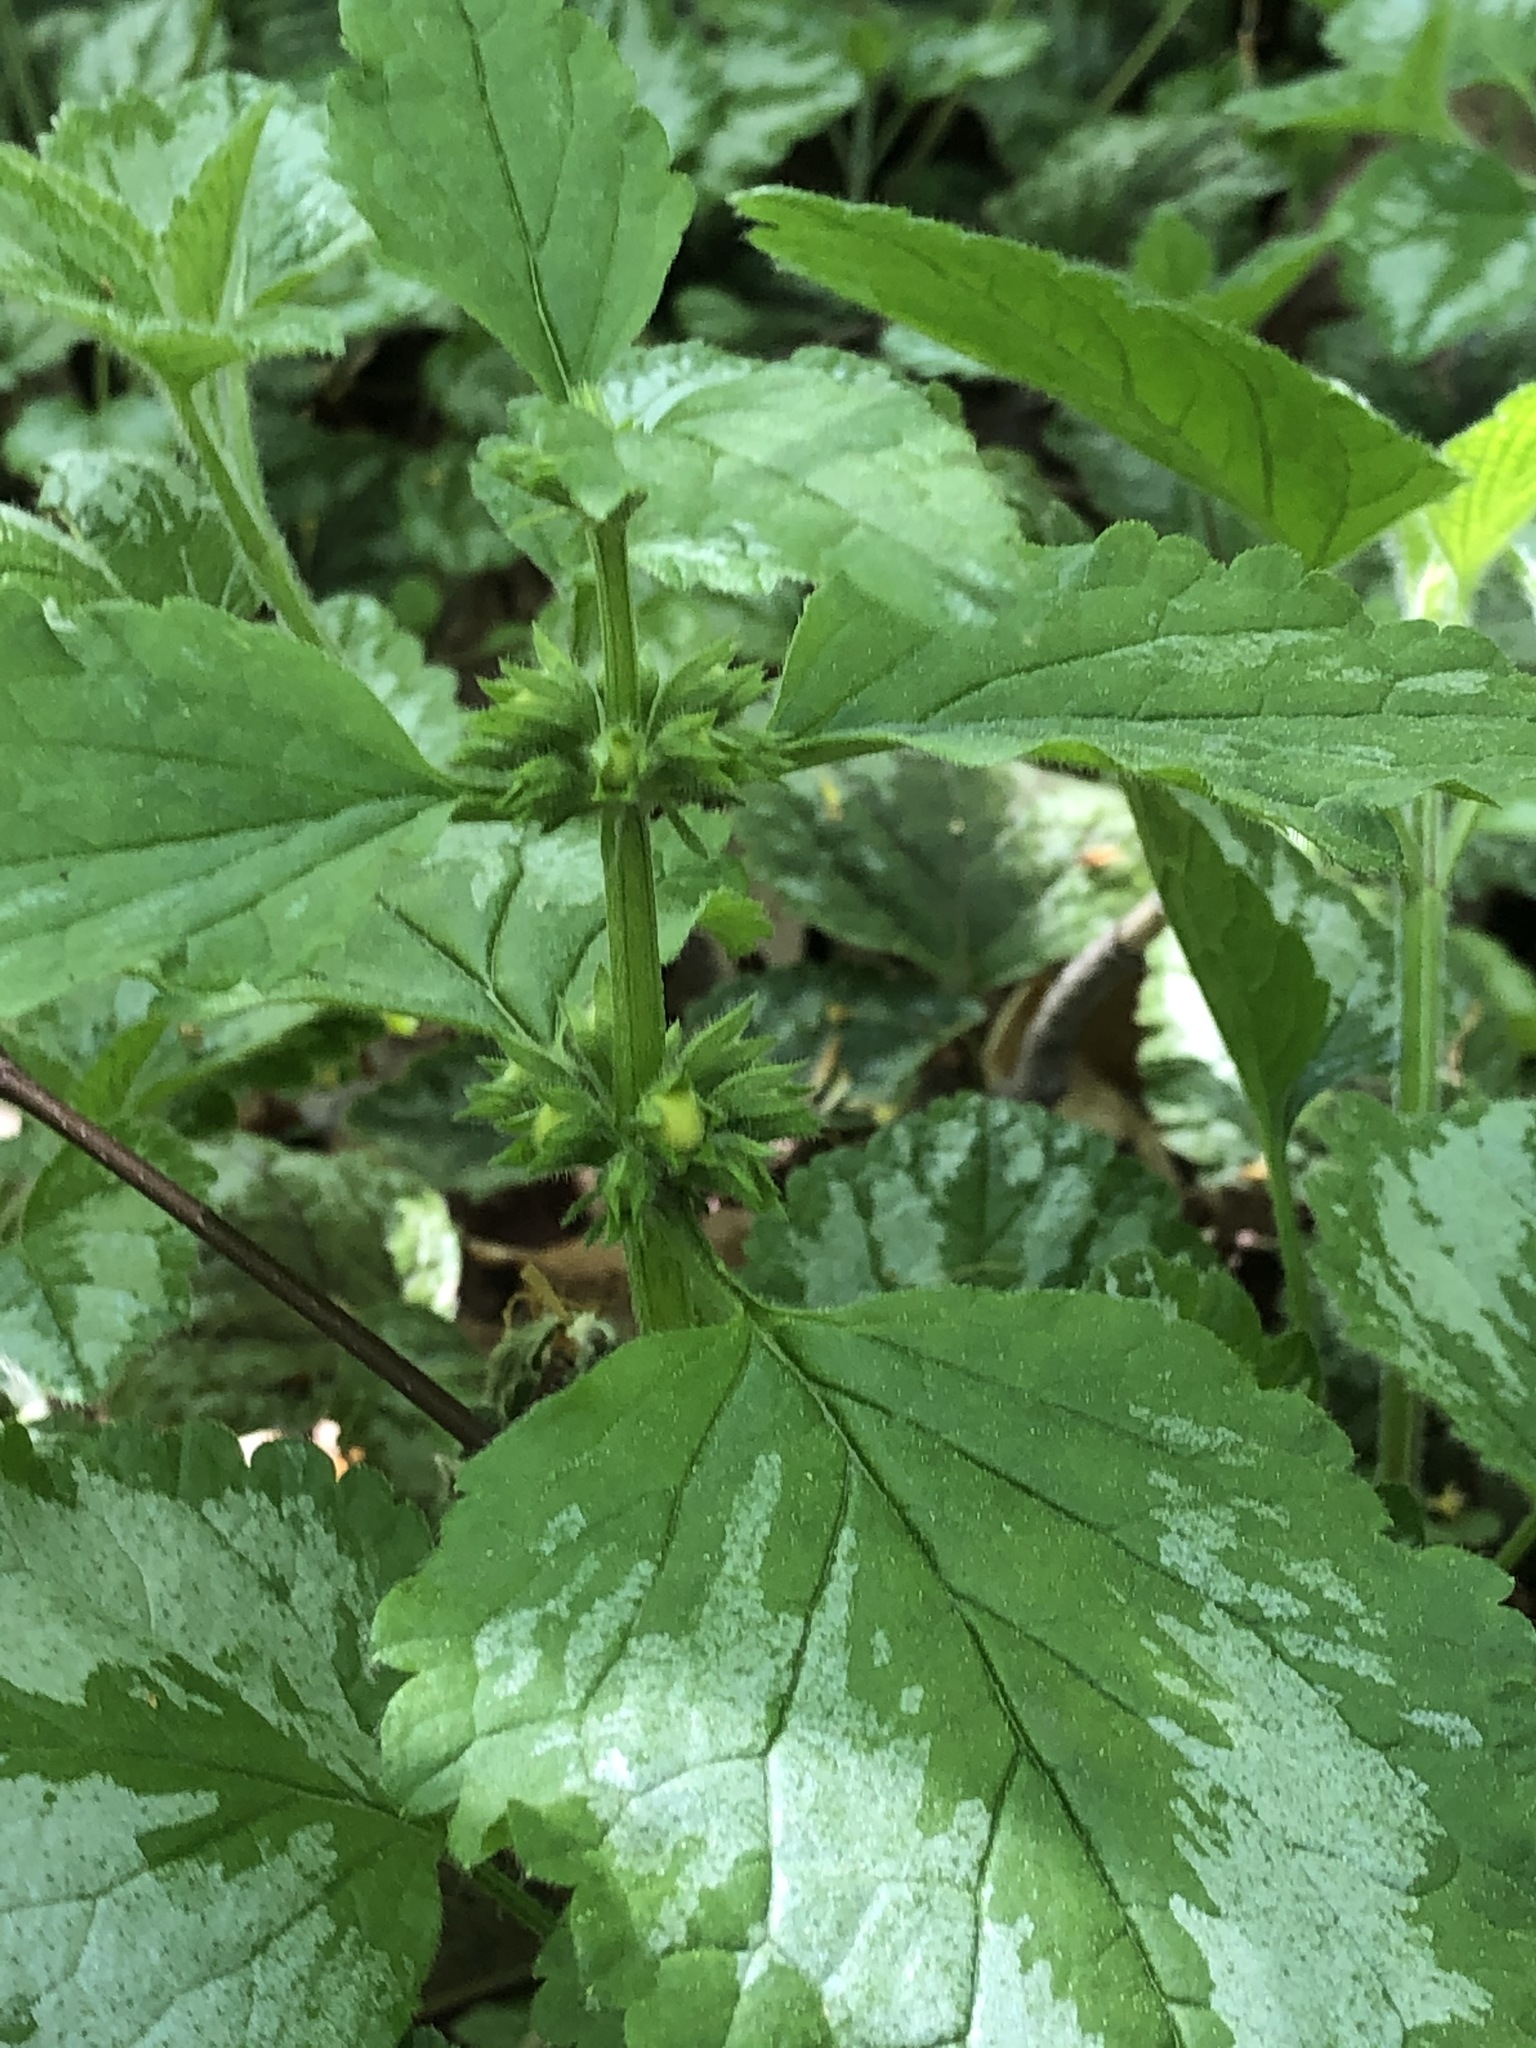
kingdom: Plantae
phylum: Tracheophyta
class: Magnoliopsida
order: Lamiales
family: Lamiaceae
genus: Lamium
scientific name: Lamium galeobdolon
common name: Yellow archangel
